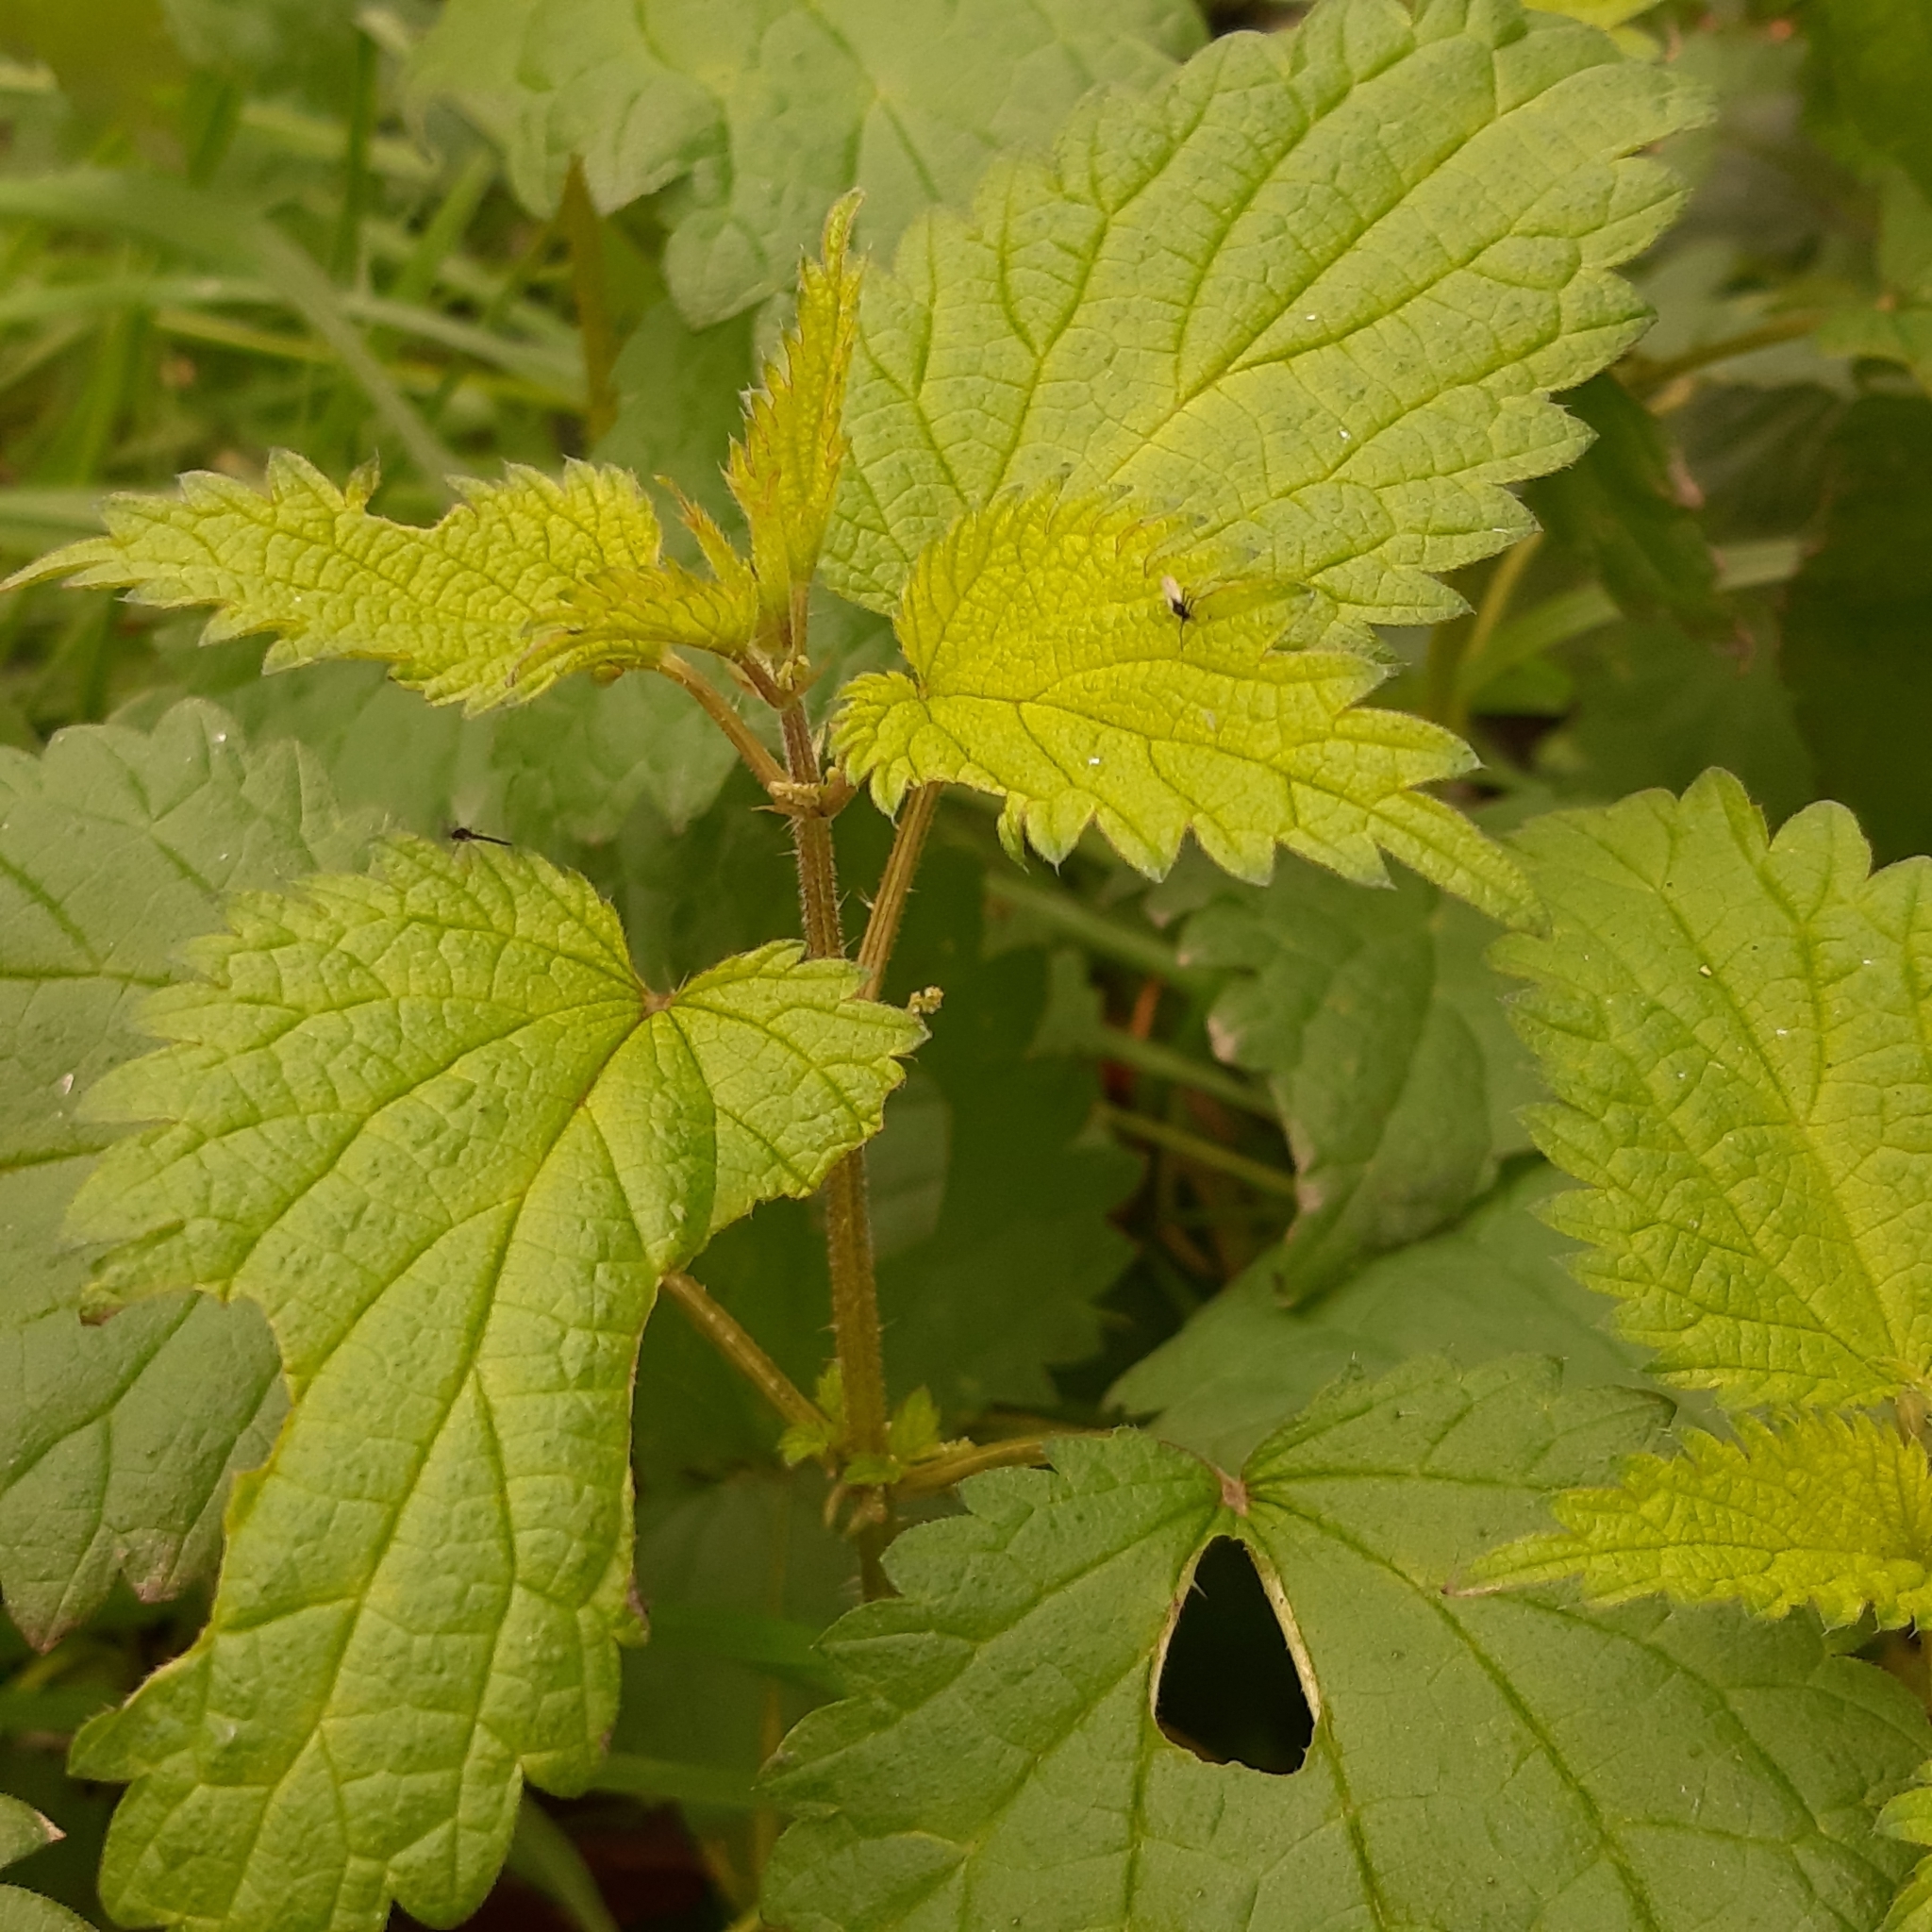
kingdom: Plantae
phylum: Tracheophyta
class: Magnoliopsida
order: Rosales
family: Urticaceae
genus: Urtica
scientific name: Urtica dioica
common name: Common nettle
